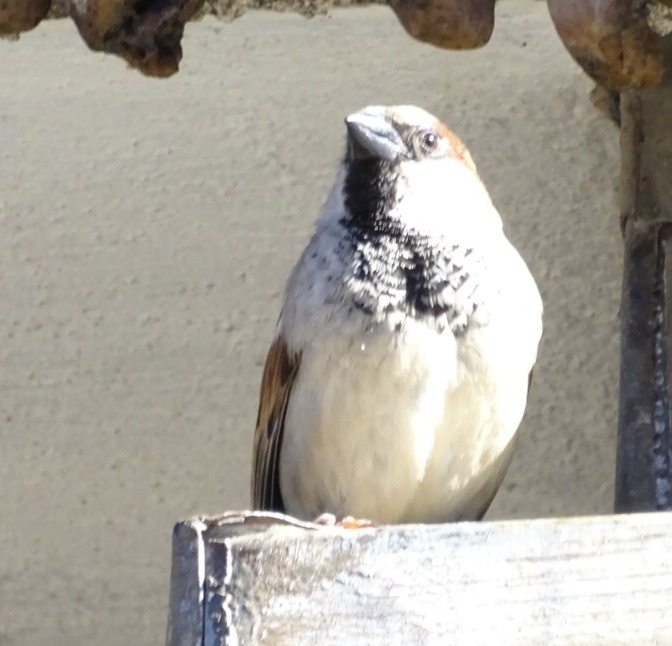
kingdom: Animalia
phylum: Chordata
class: Aves
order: Passeriformes
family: Passeridae
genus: Passer
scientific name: Passer domesticus
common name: House sparrow
